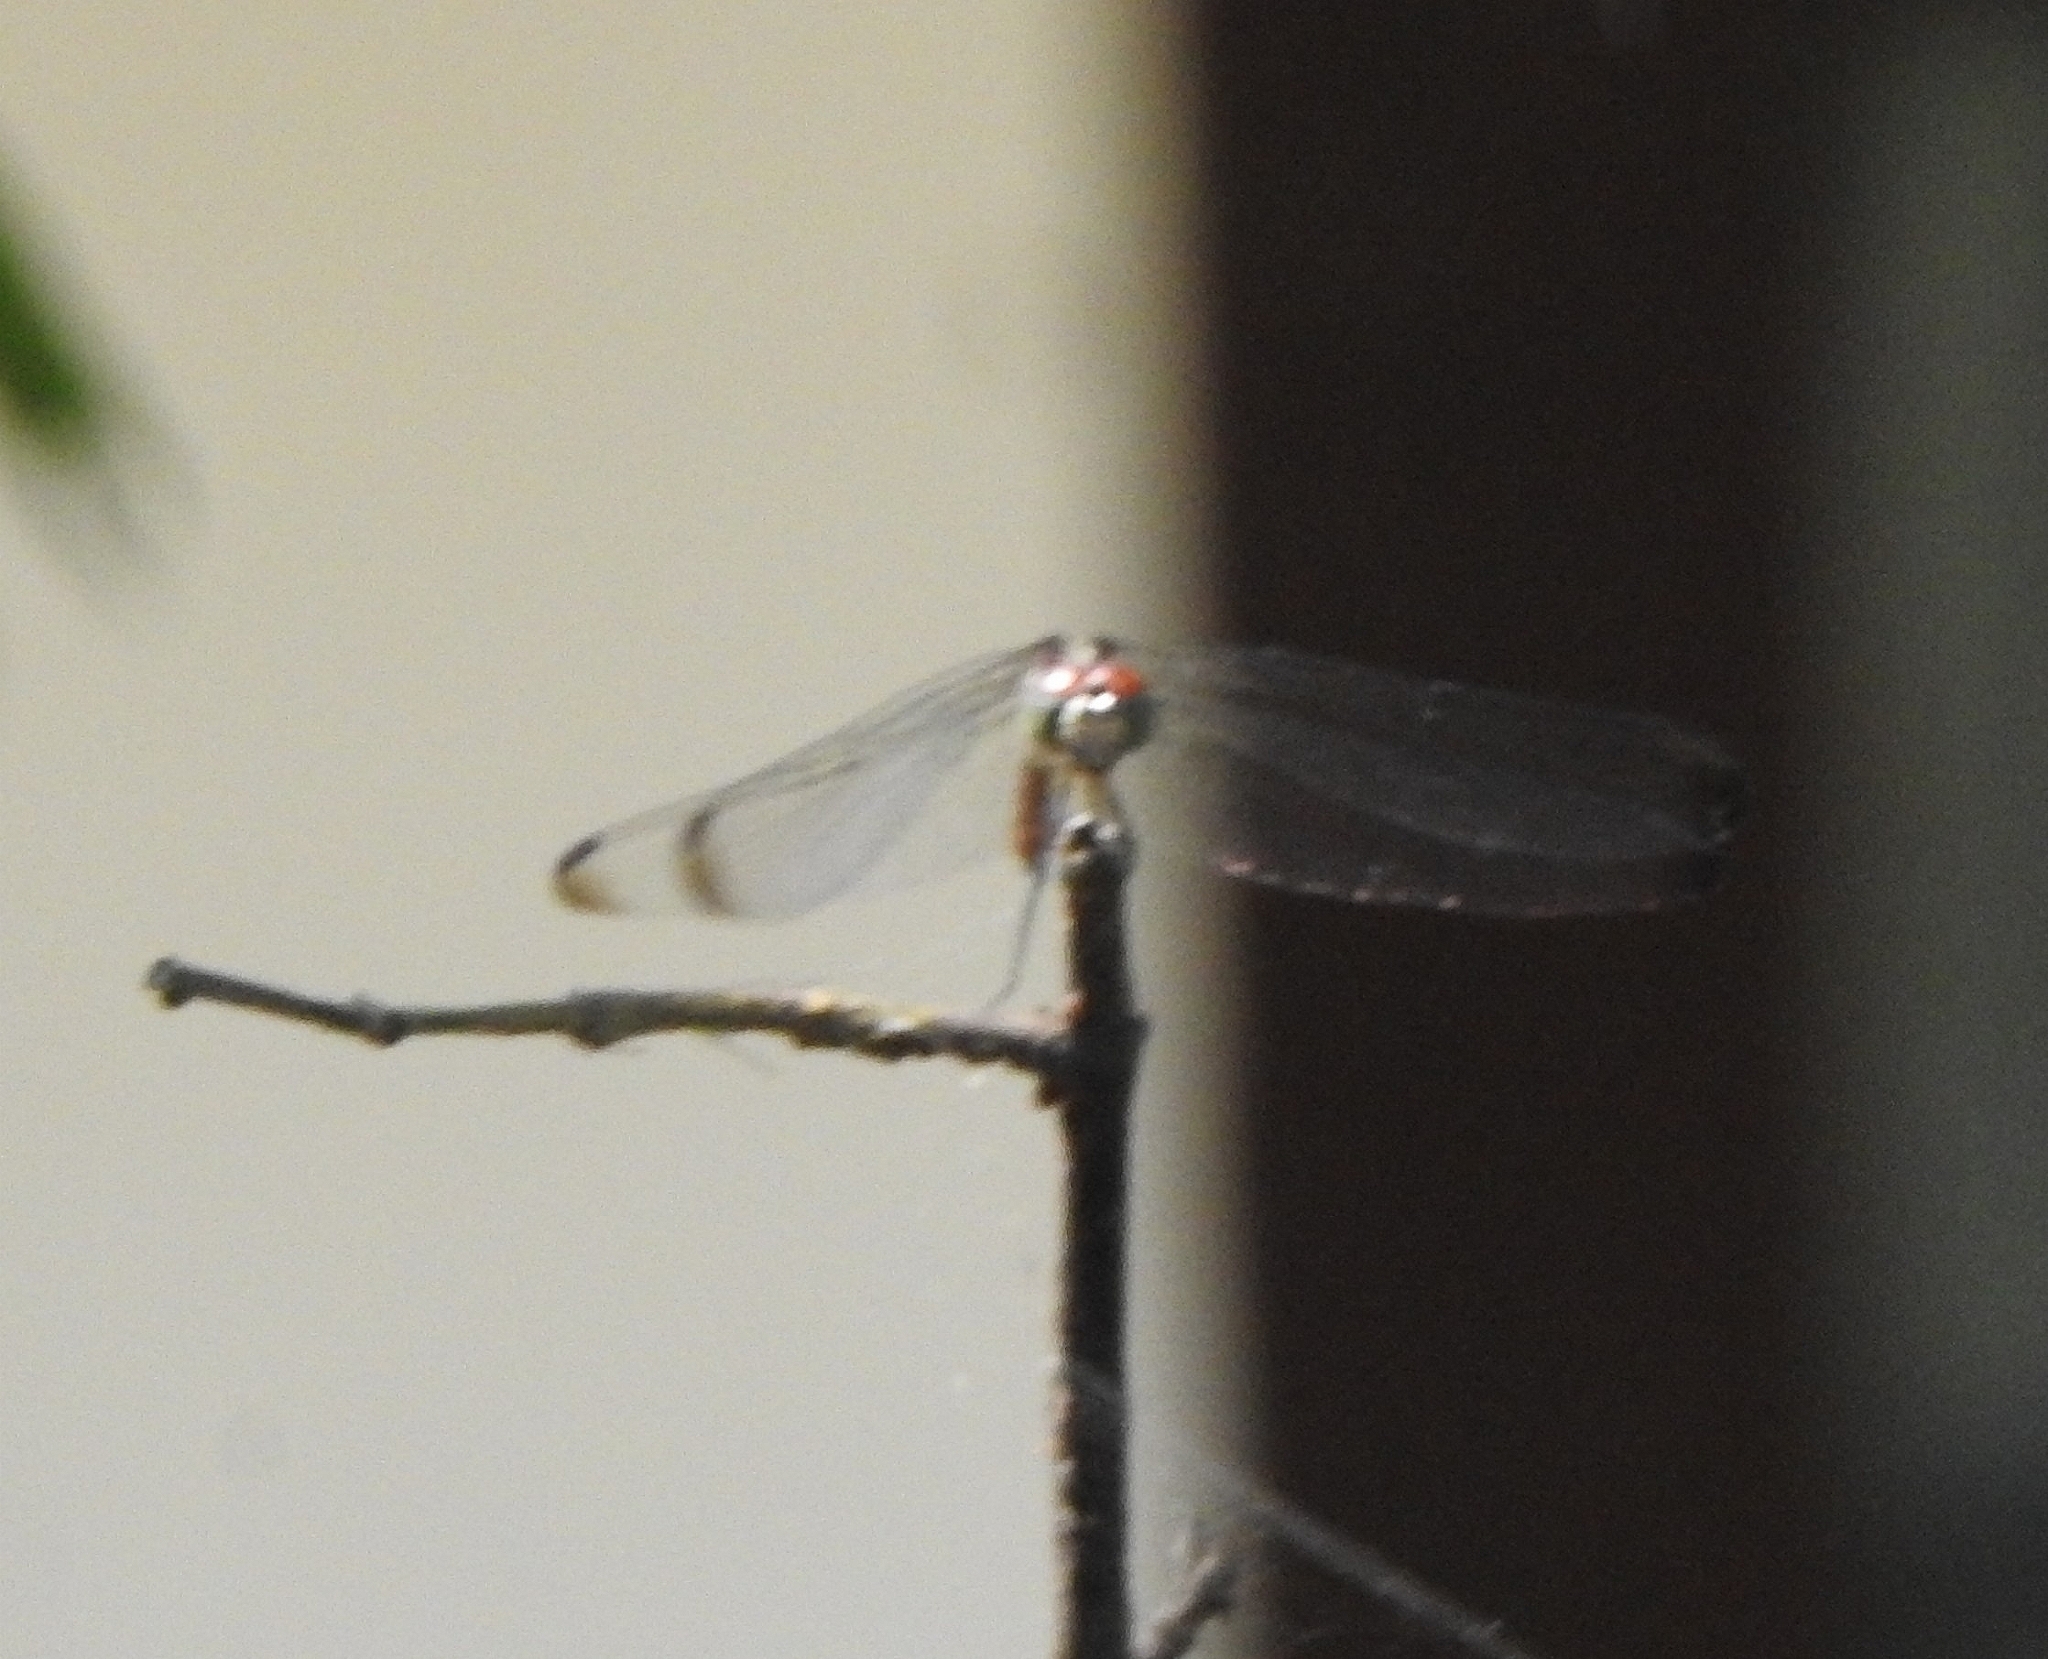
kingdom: Animalia
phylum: Arthropoda
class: Insecta
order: Odonata
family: Libellulidae
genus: Lathrecista
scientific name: Lathrecista asiatica
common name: Scarlet grenadier
